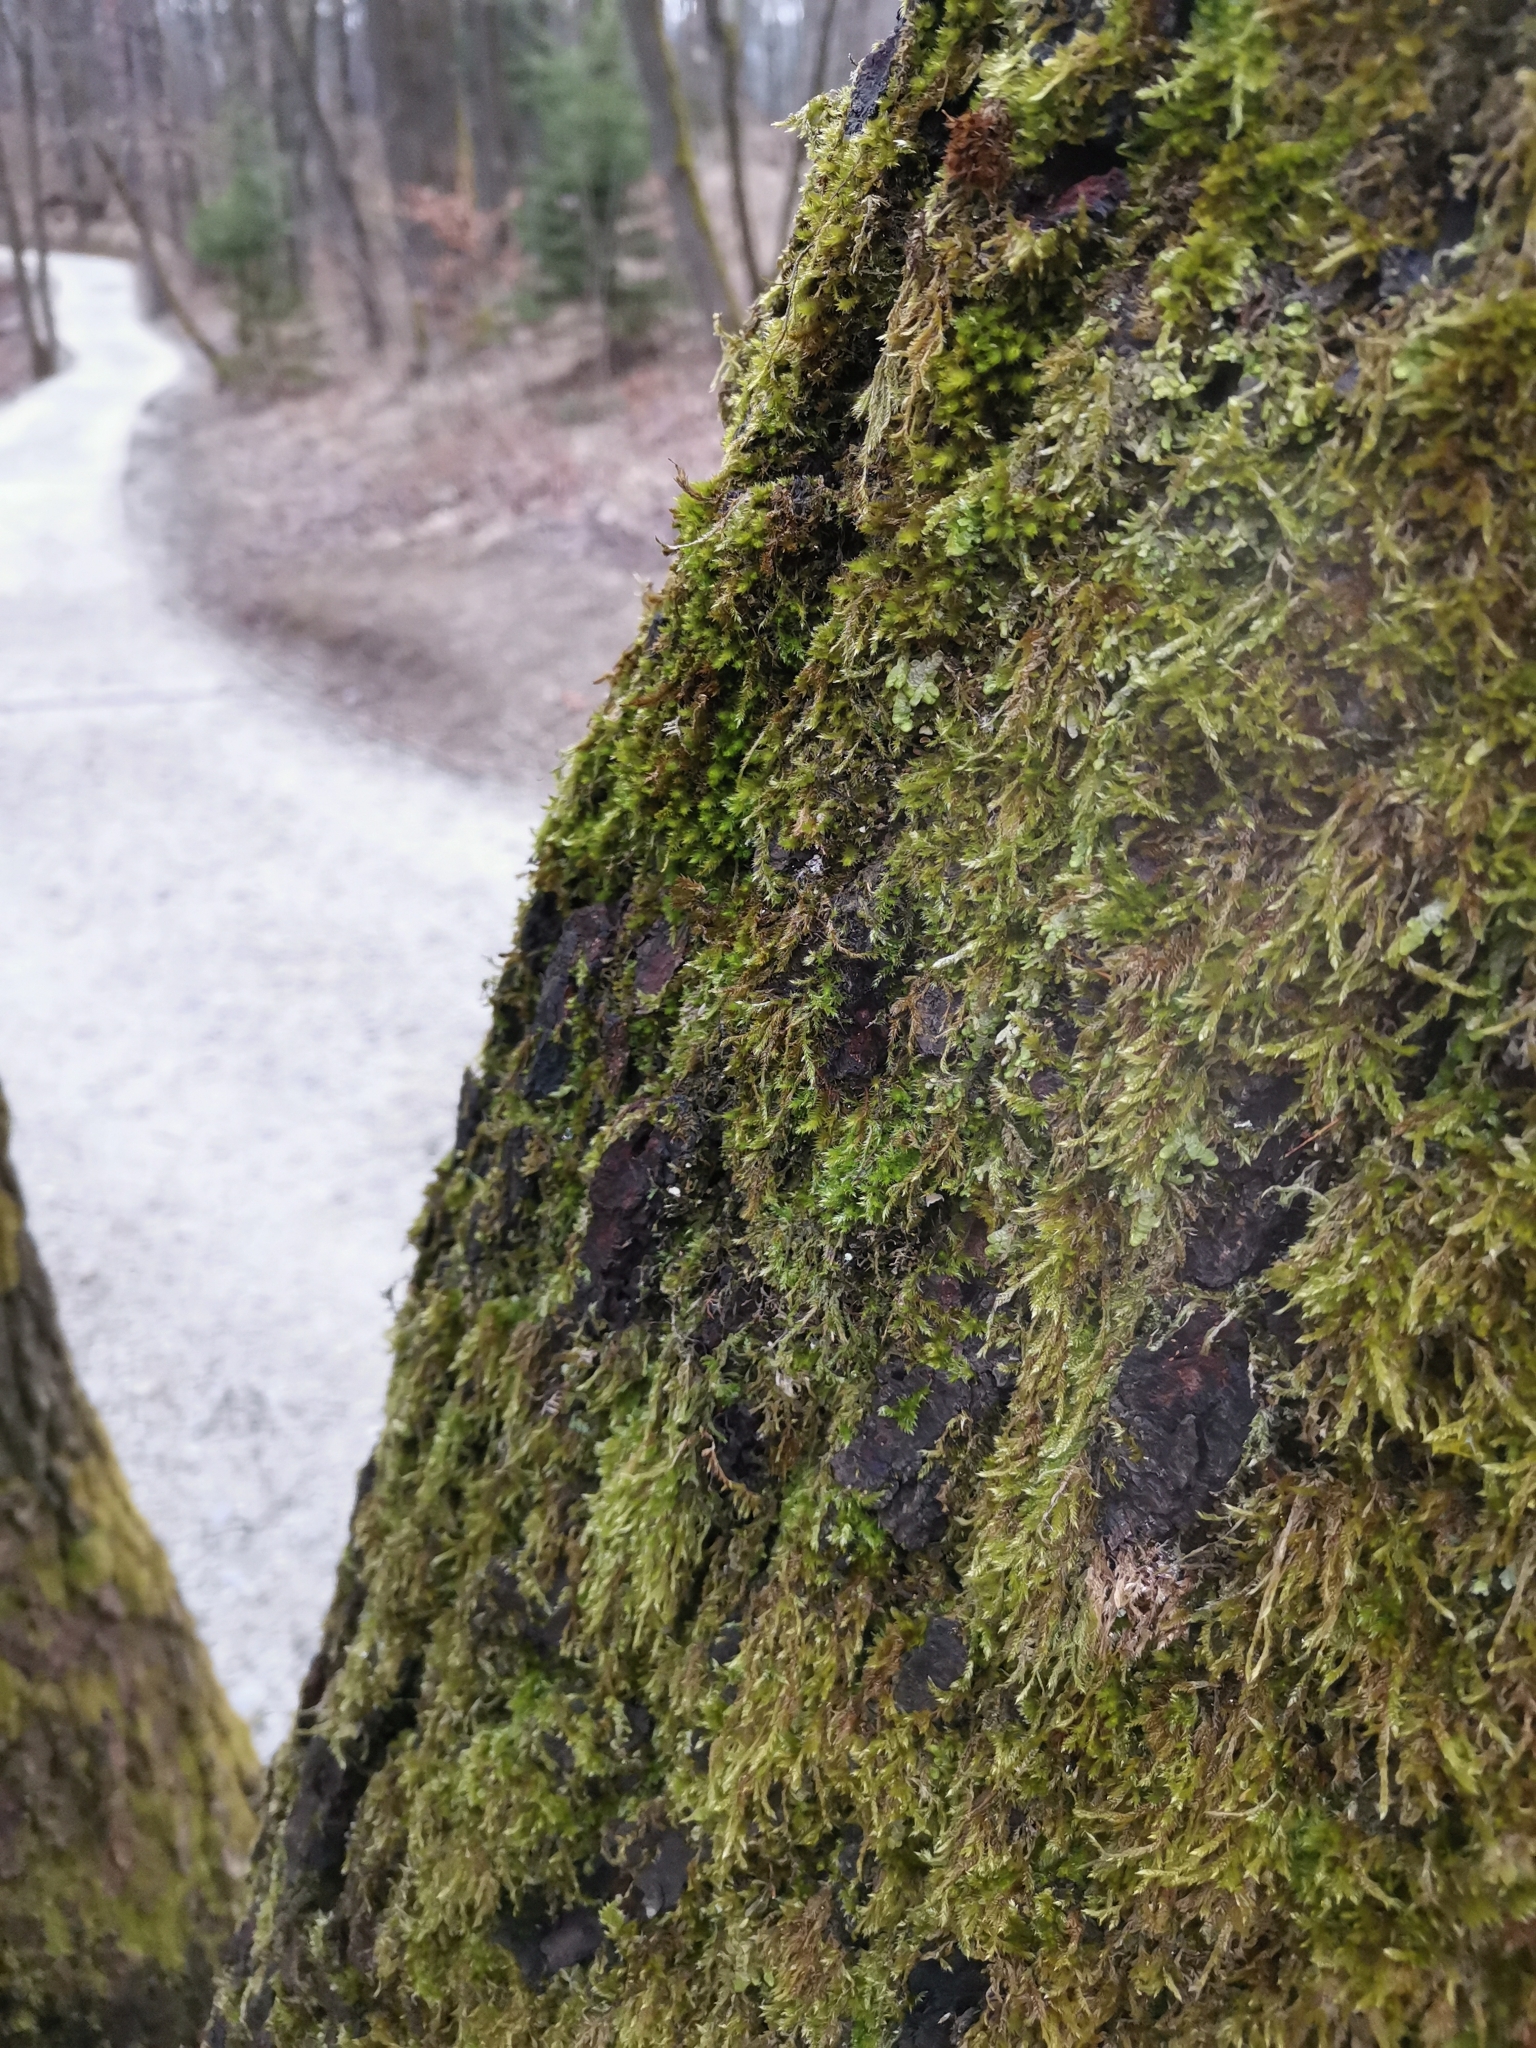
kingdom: Plantae
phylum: Bryophyta
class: Bryopsida
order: Hypnales
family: Leucodontaceae
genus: Leucodon
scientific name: Leucodon sciuroides
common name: Squirrel-tail moss
